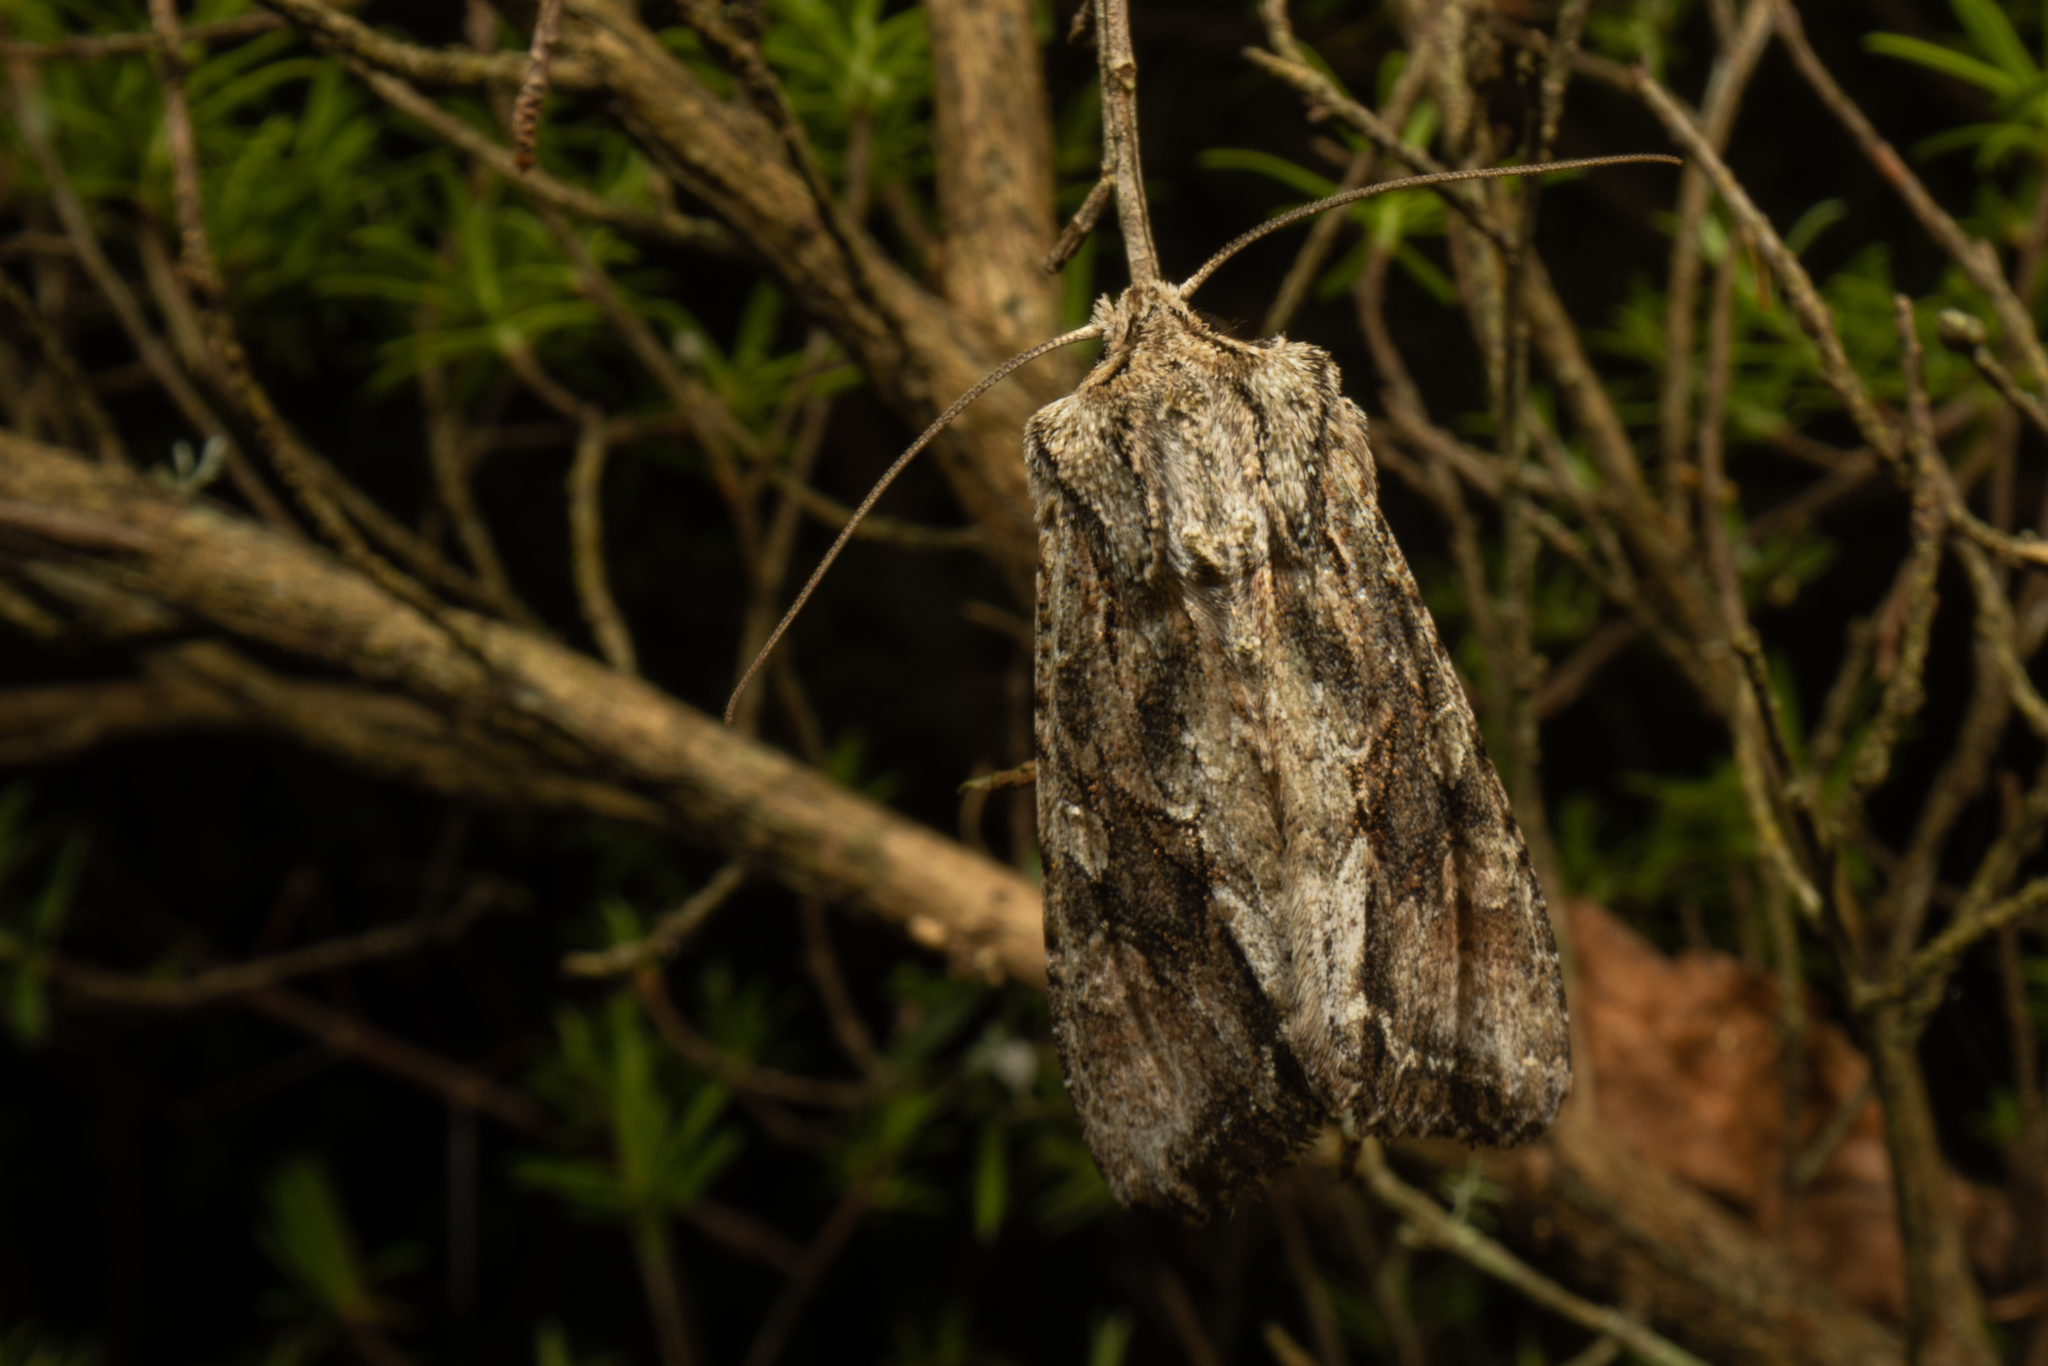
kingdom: Animalia
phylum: Arthropoda
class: Insecta
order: Lepidoptera
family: Noctuidae
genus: Ichneutica
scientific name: Ichneutica mutans
